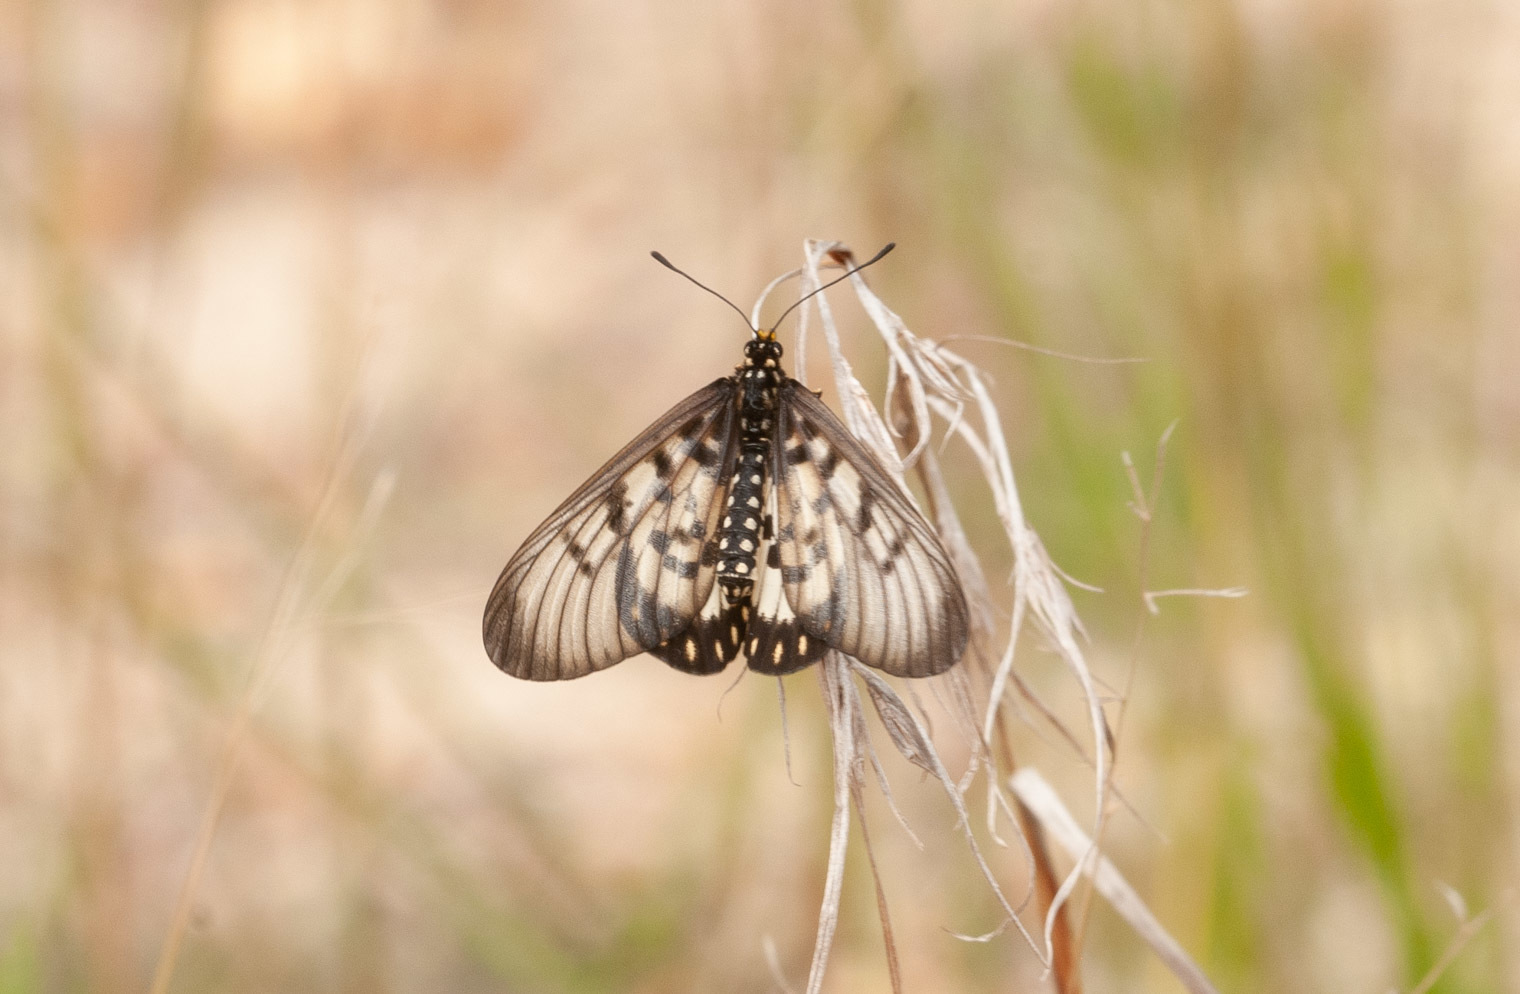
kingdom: Animalia
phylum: Arthropoda
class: Insecta
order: Lepidoptera
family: Nymphalidae
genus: Acraea
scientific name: Acraea andromacha
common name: Glasswing
